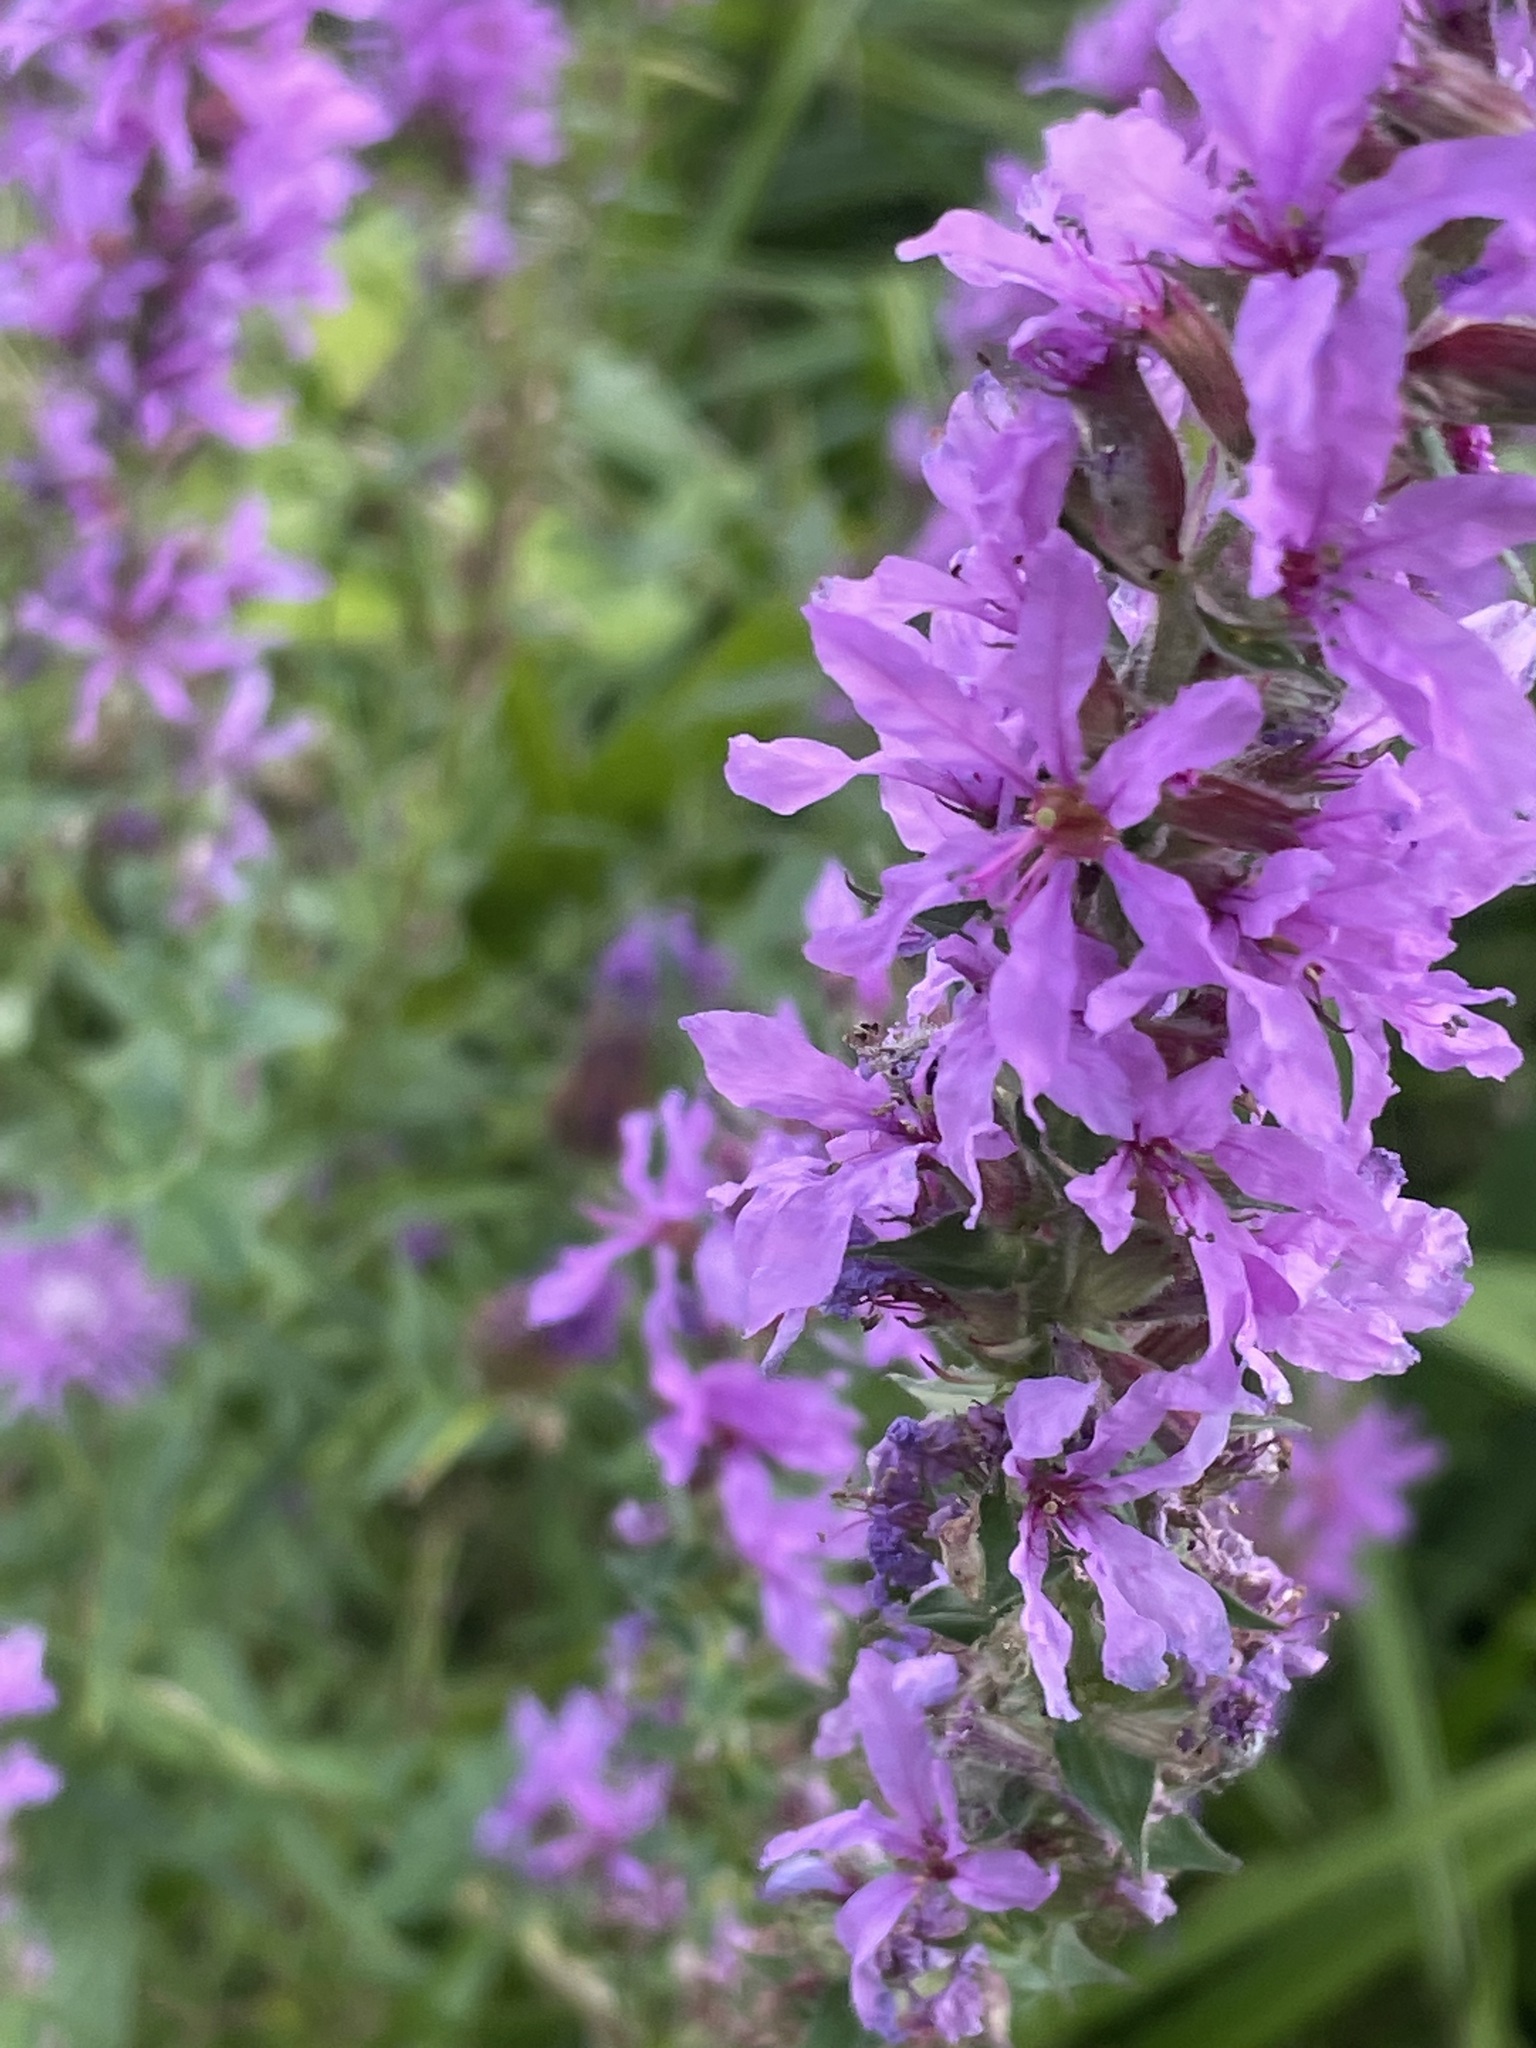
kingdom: Plantae
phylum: Tracheophyta
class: Magnoliopsida
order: Myrtales
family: Lythraceae
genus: Lythrum
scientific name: Lythrum salicaria
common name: Purple loosestrife
